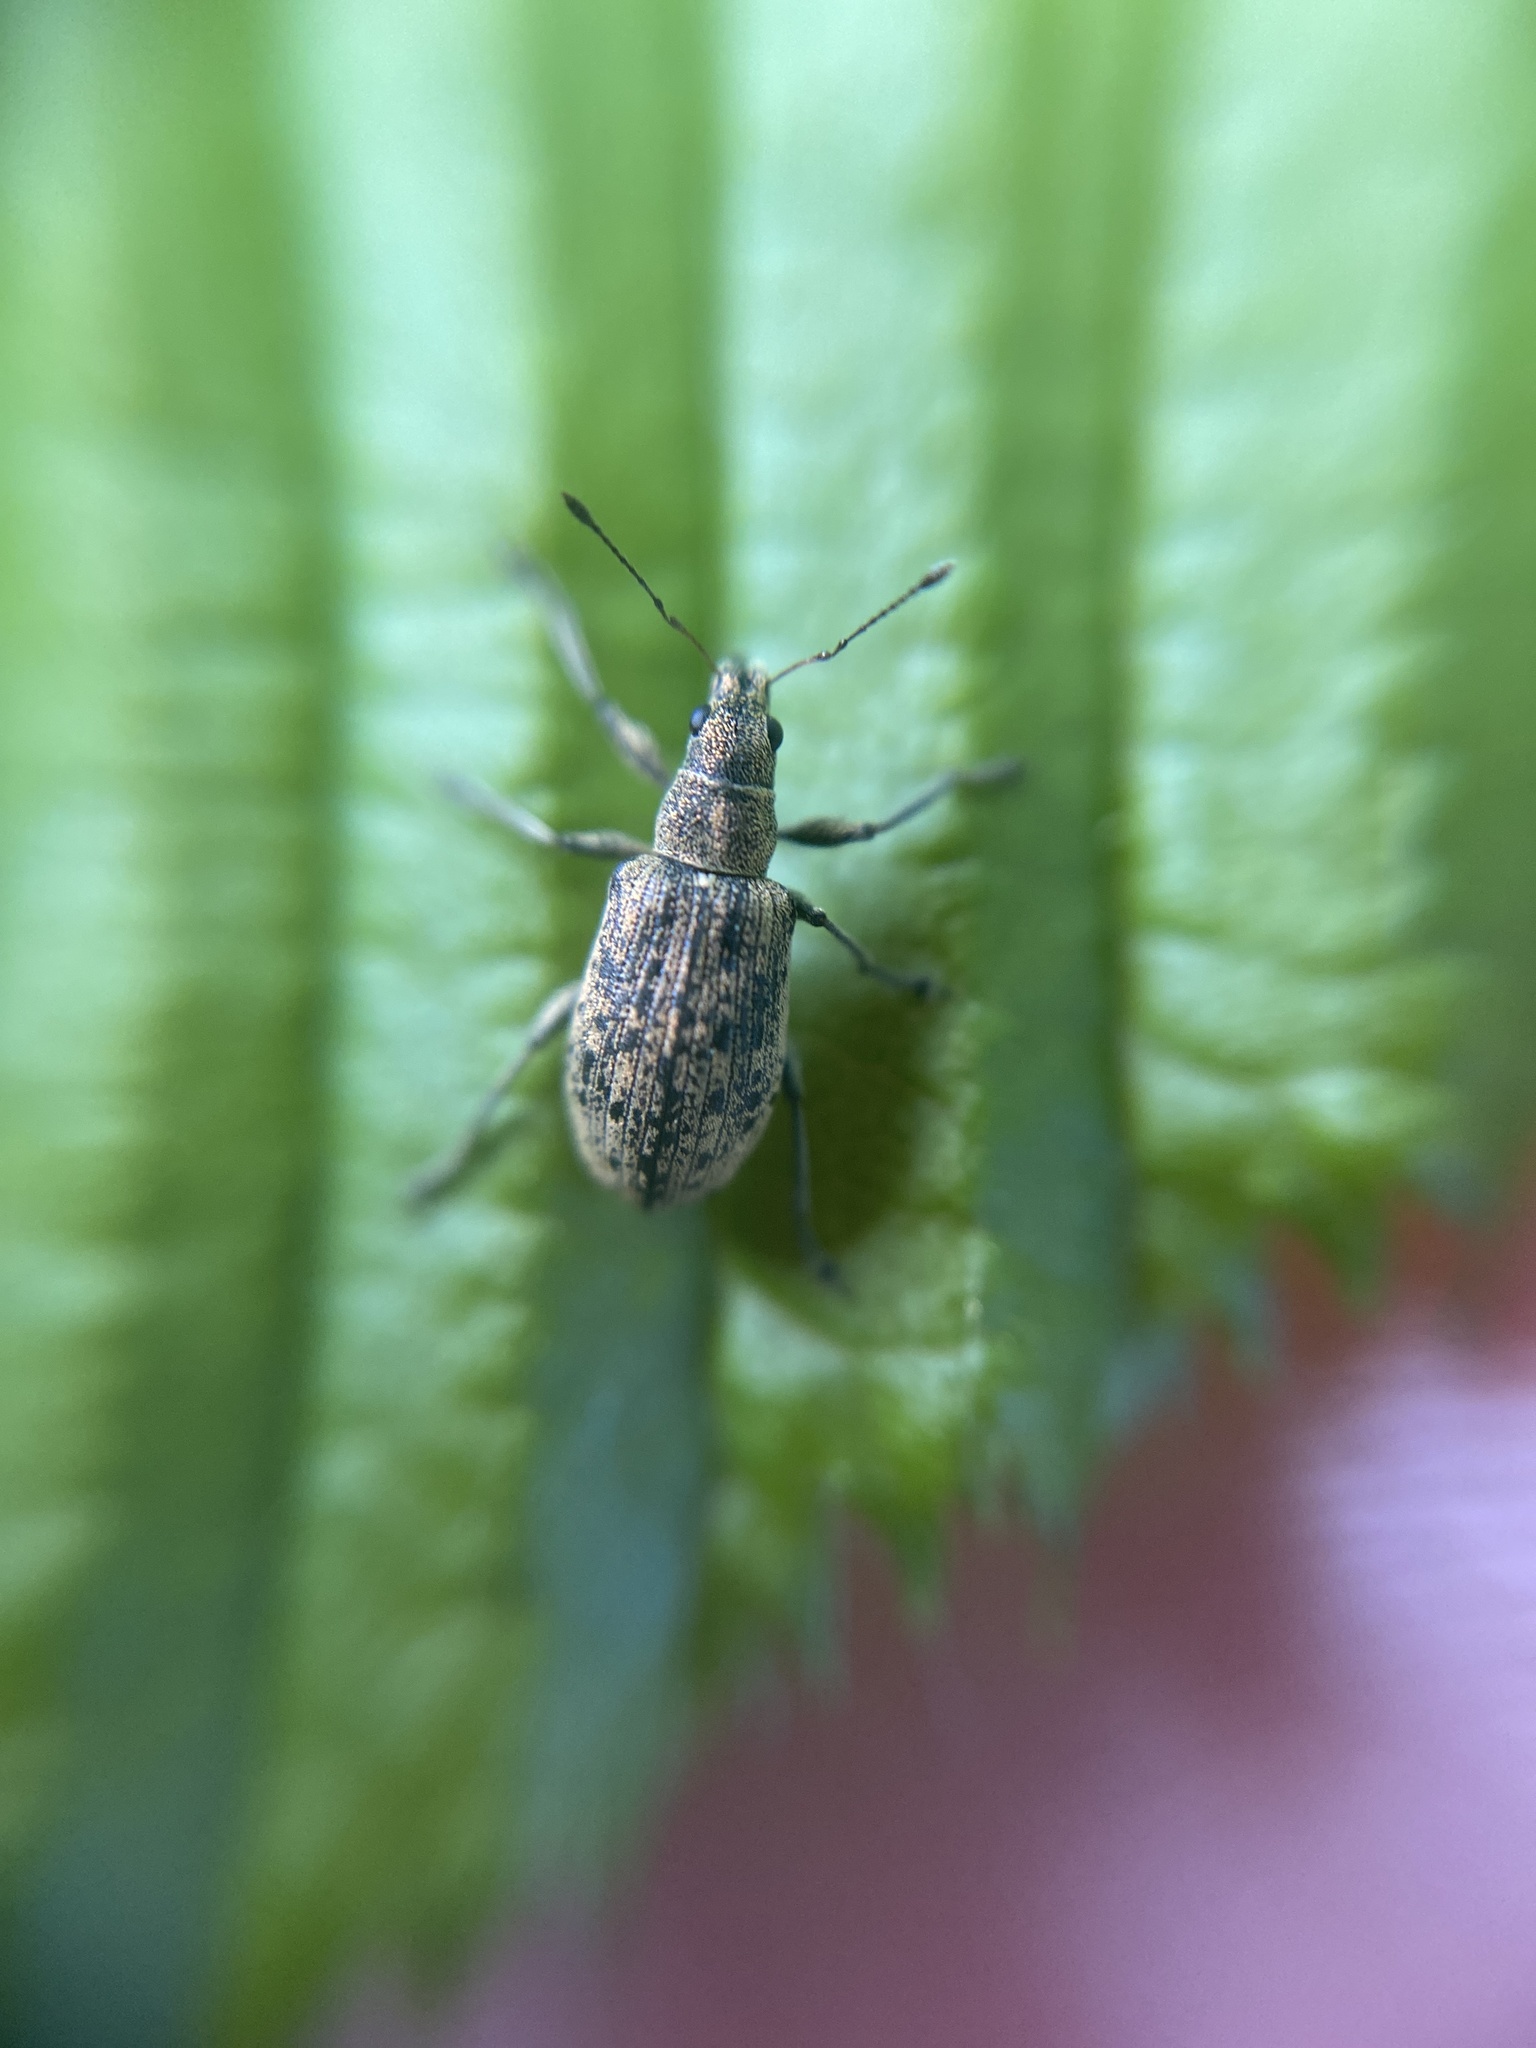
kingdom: Animalia
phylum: Arthropoda
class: Insecta
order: Coleoptera
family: Curculionidae
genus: Polydrusus
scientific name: Polydrusus cervinus
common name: Weevil
